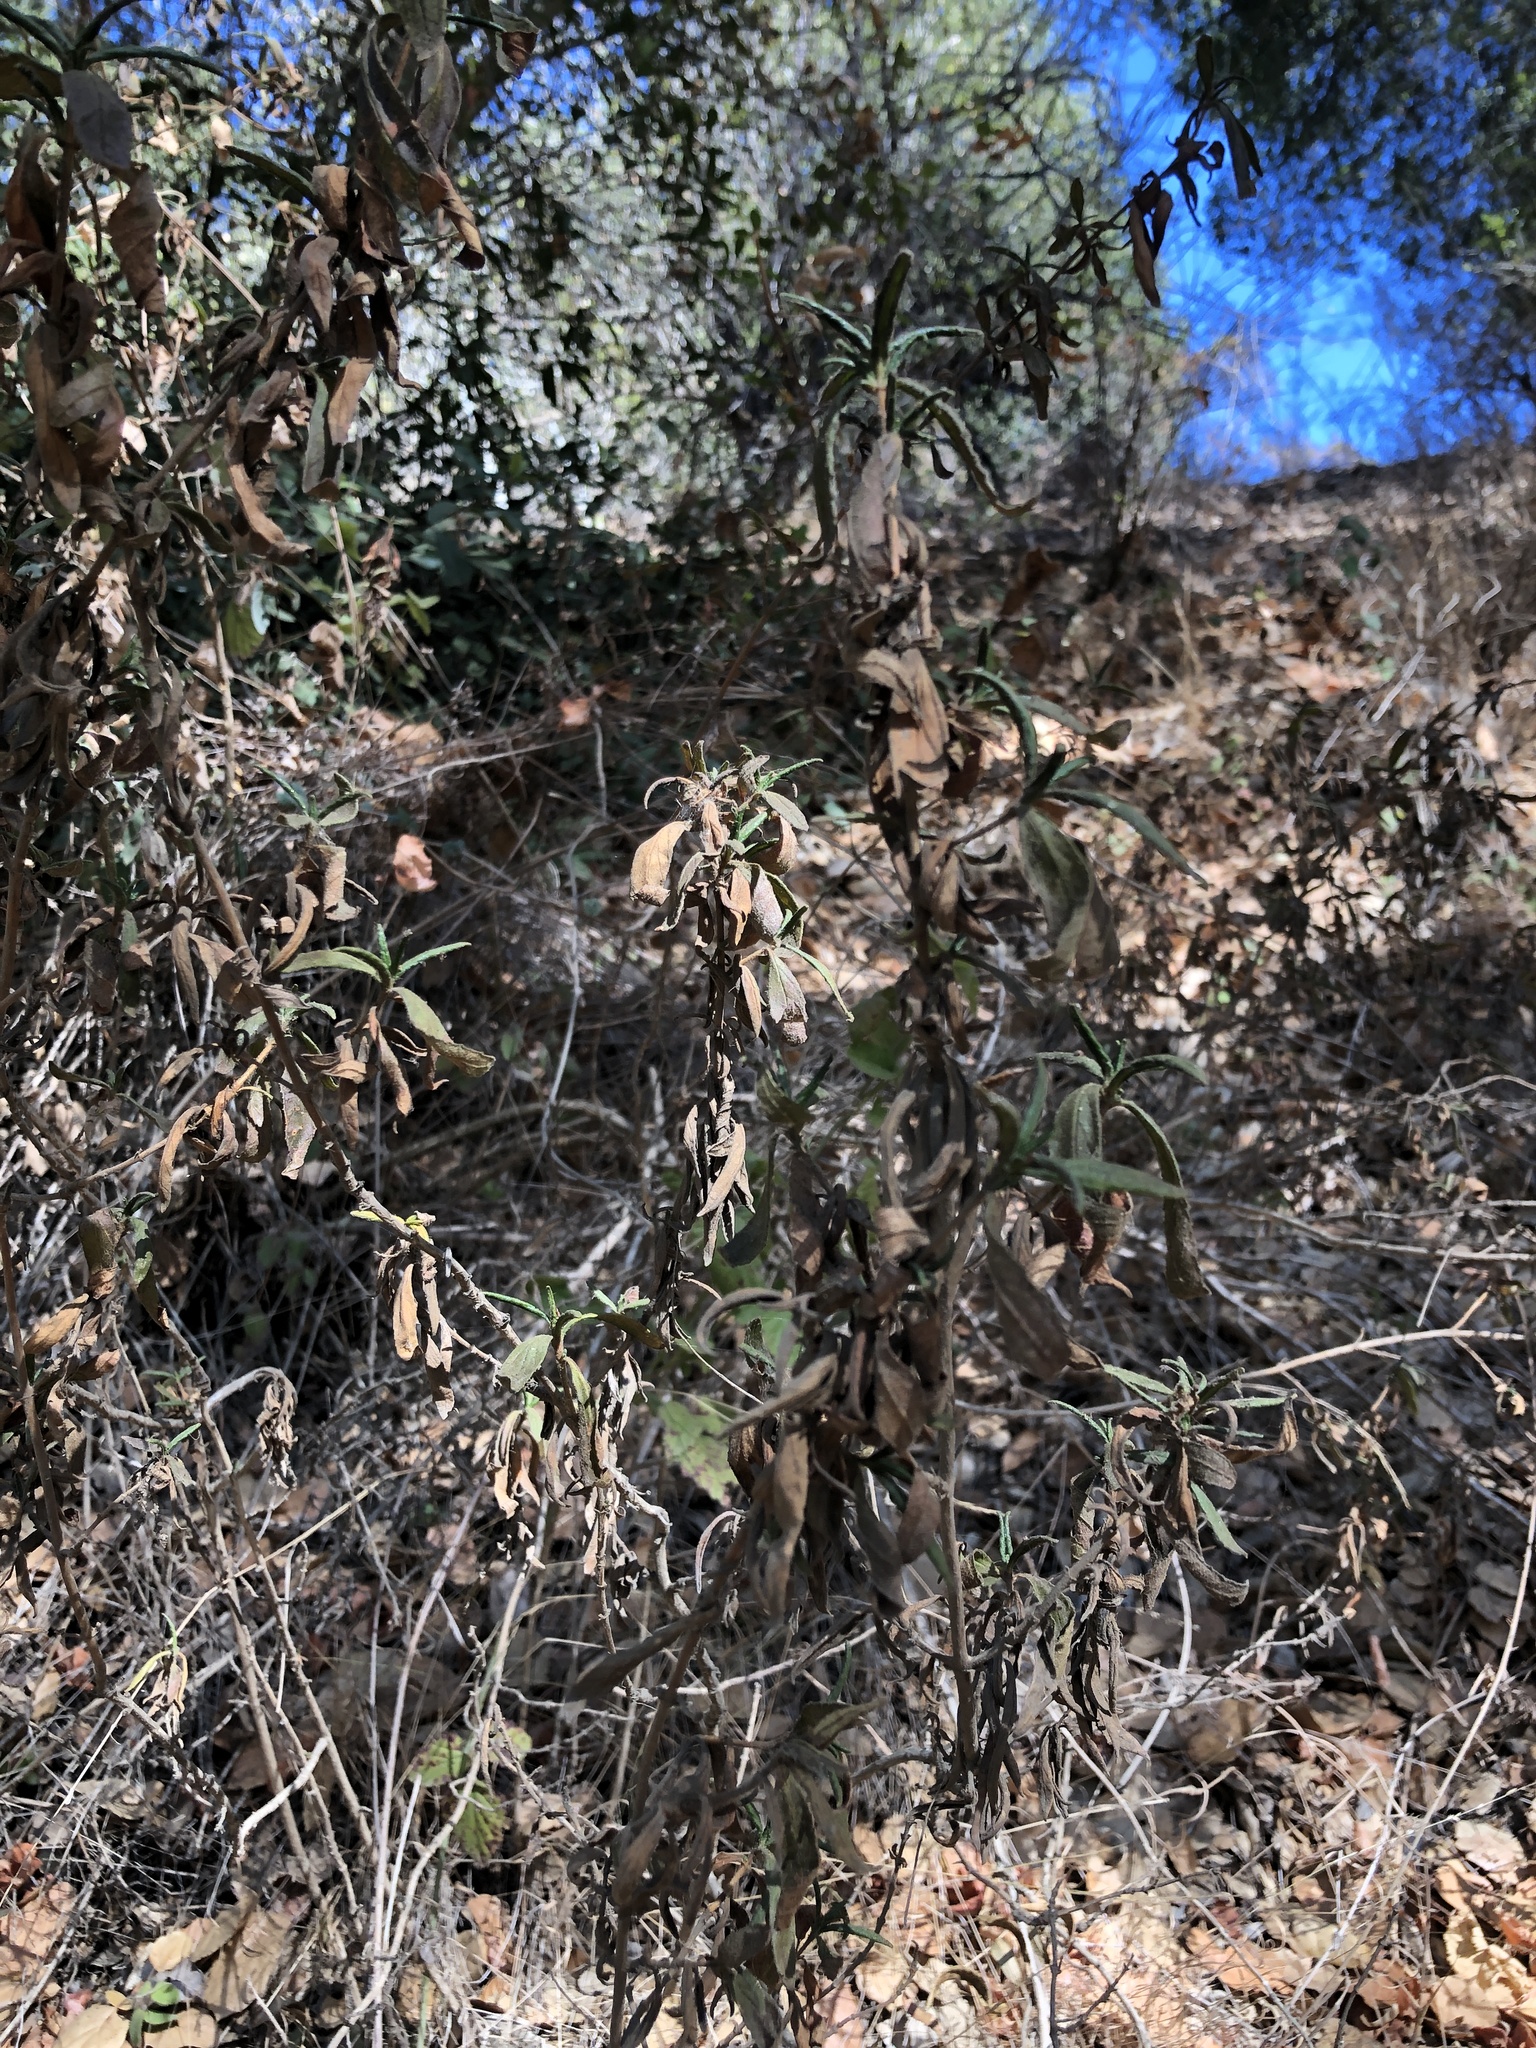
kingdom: Plantae
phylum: Tracheophyta
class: Magnoliopsida
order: Lamiales
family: Phrymaceae
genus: Diplacus
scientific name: Diplacus aurantiacus
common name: Bush monkey-flower
